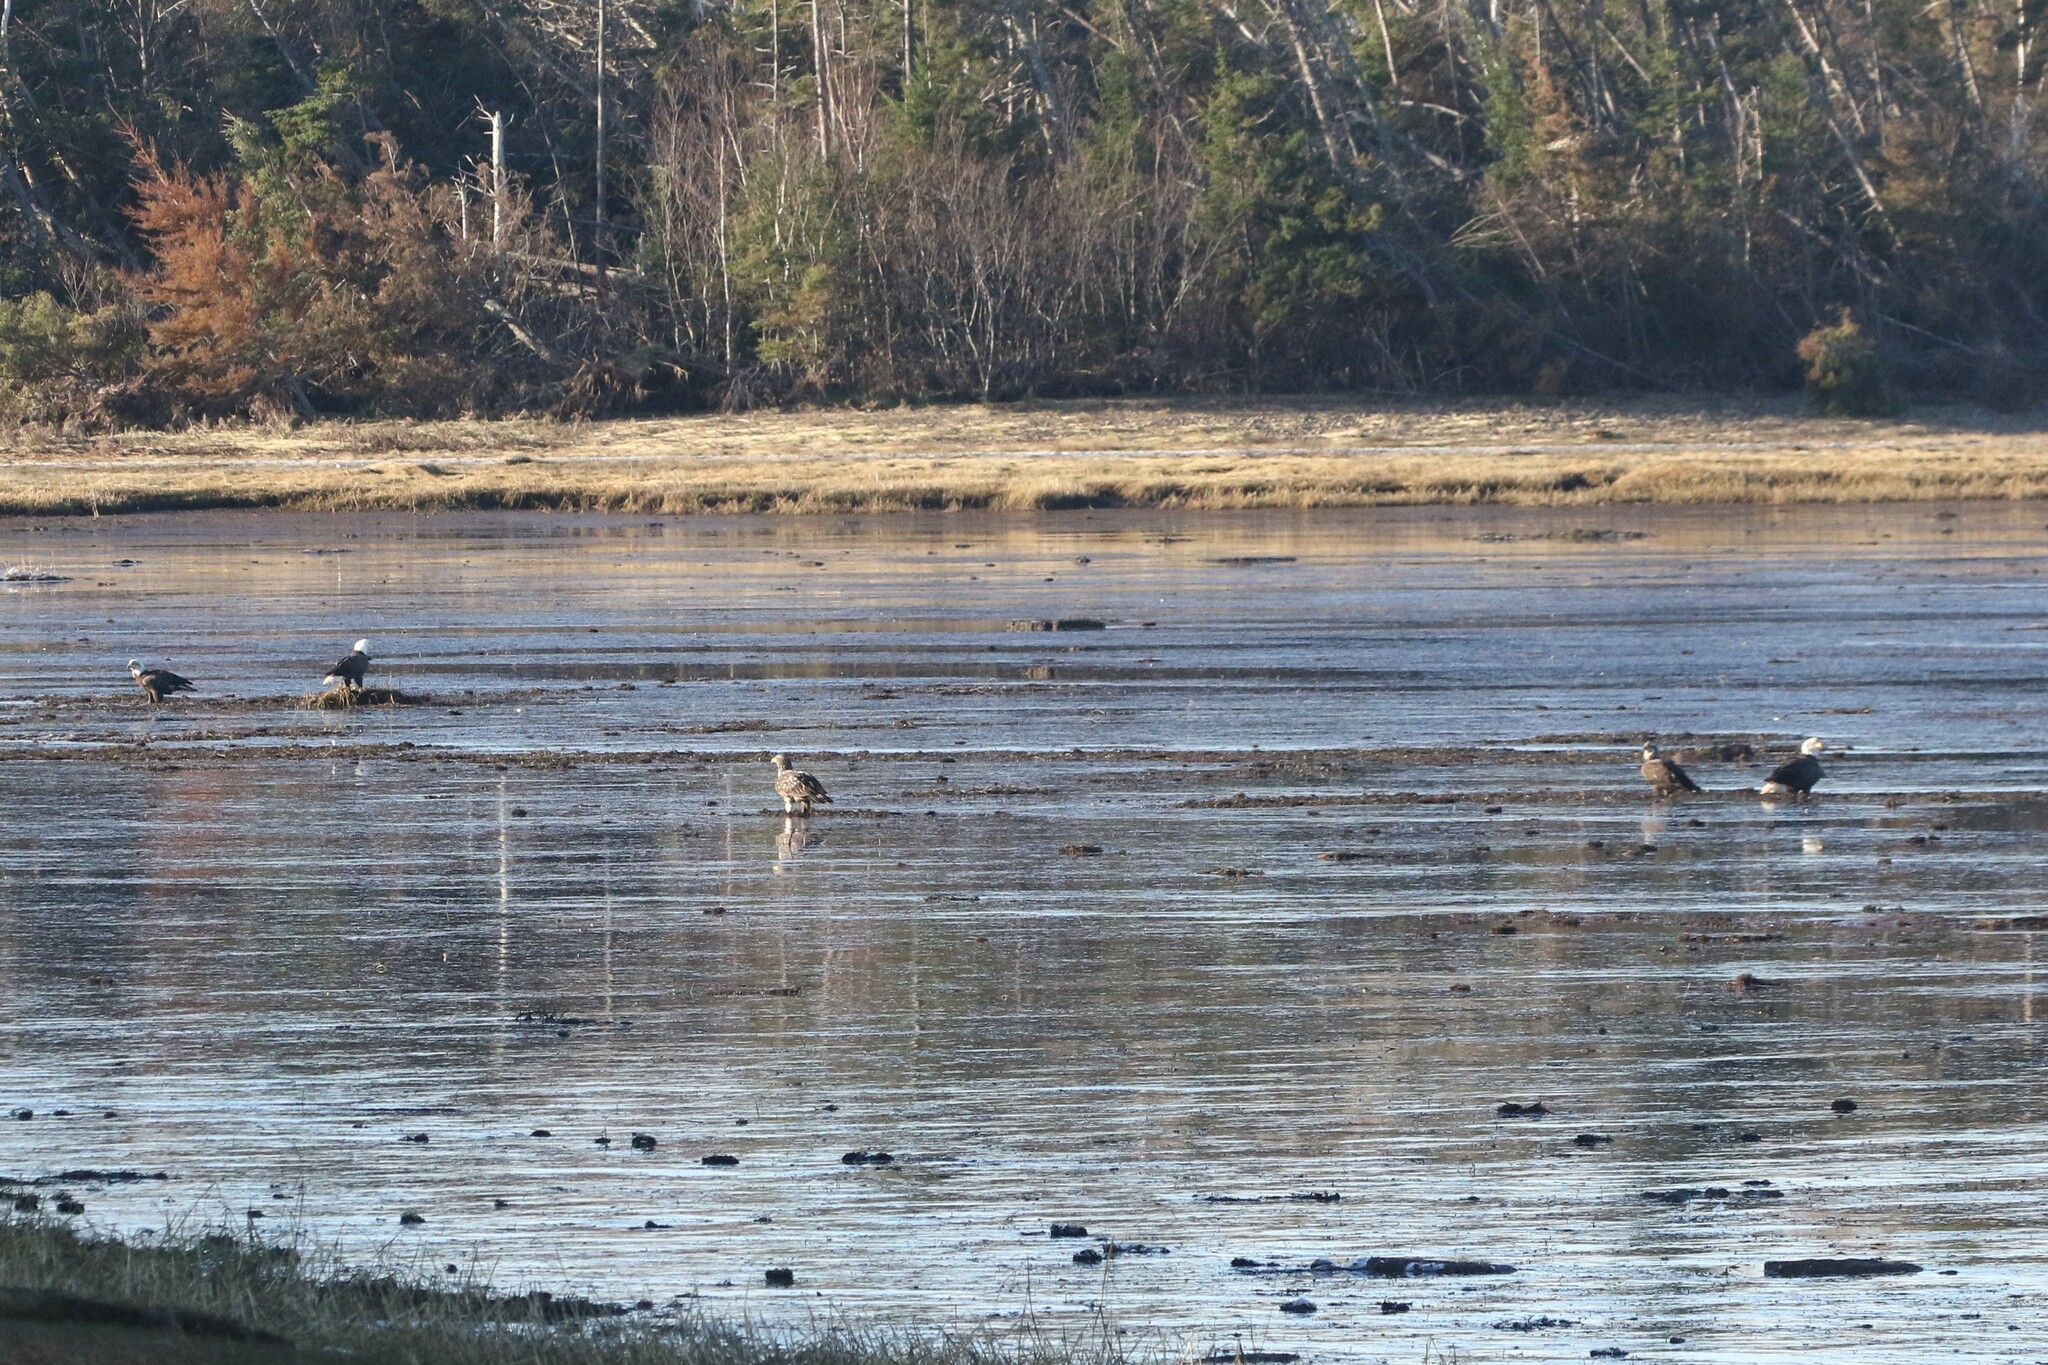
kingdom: Animalia
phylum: Chordata
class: Aves
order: Accipitriformes
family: Accipitridae
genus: Haliaeetus
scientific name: Haliaeetus leucocephalus
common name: Bald eagle
